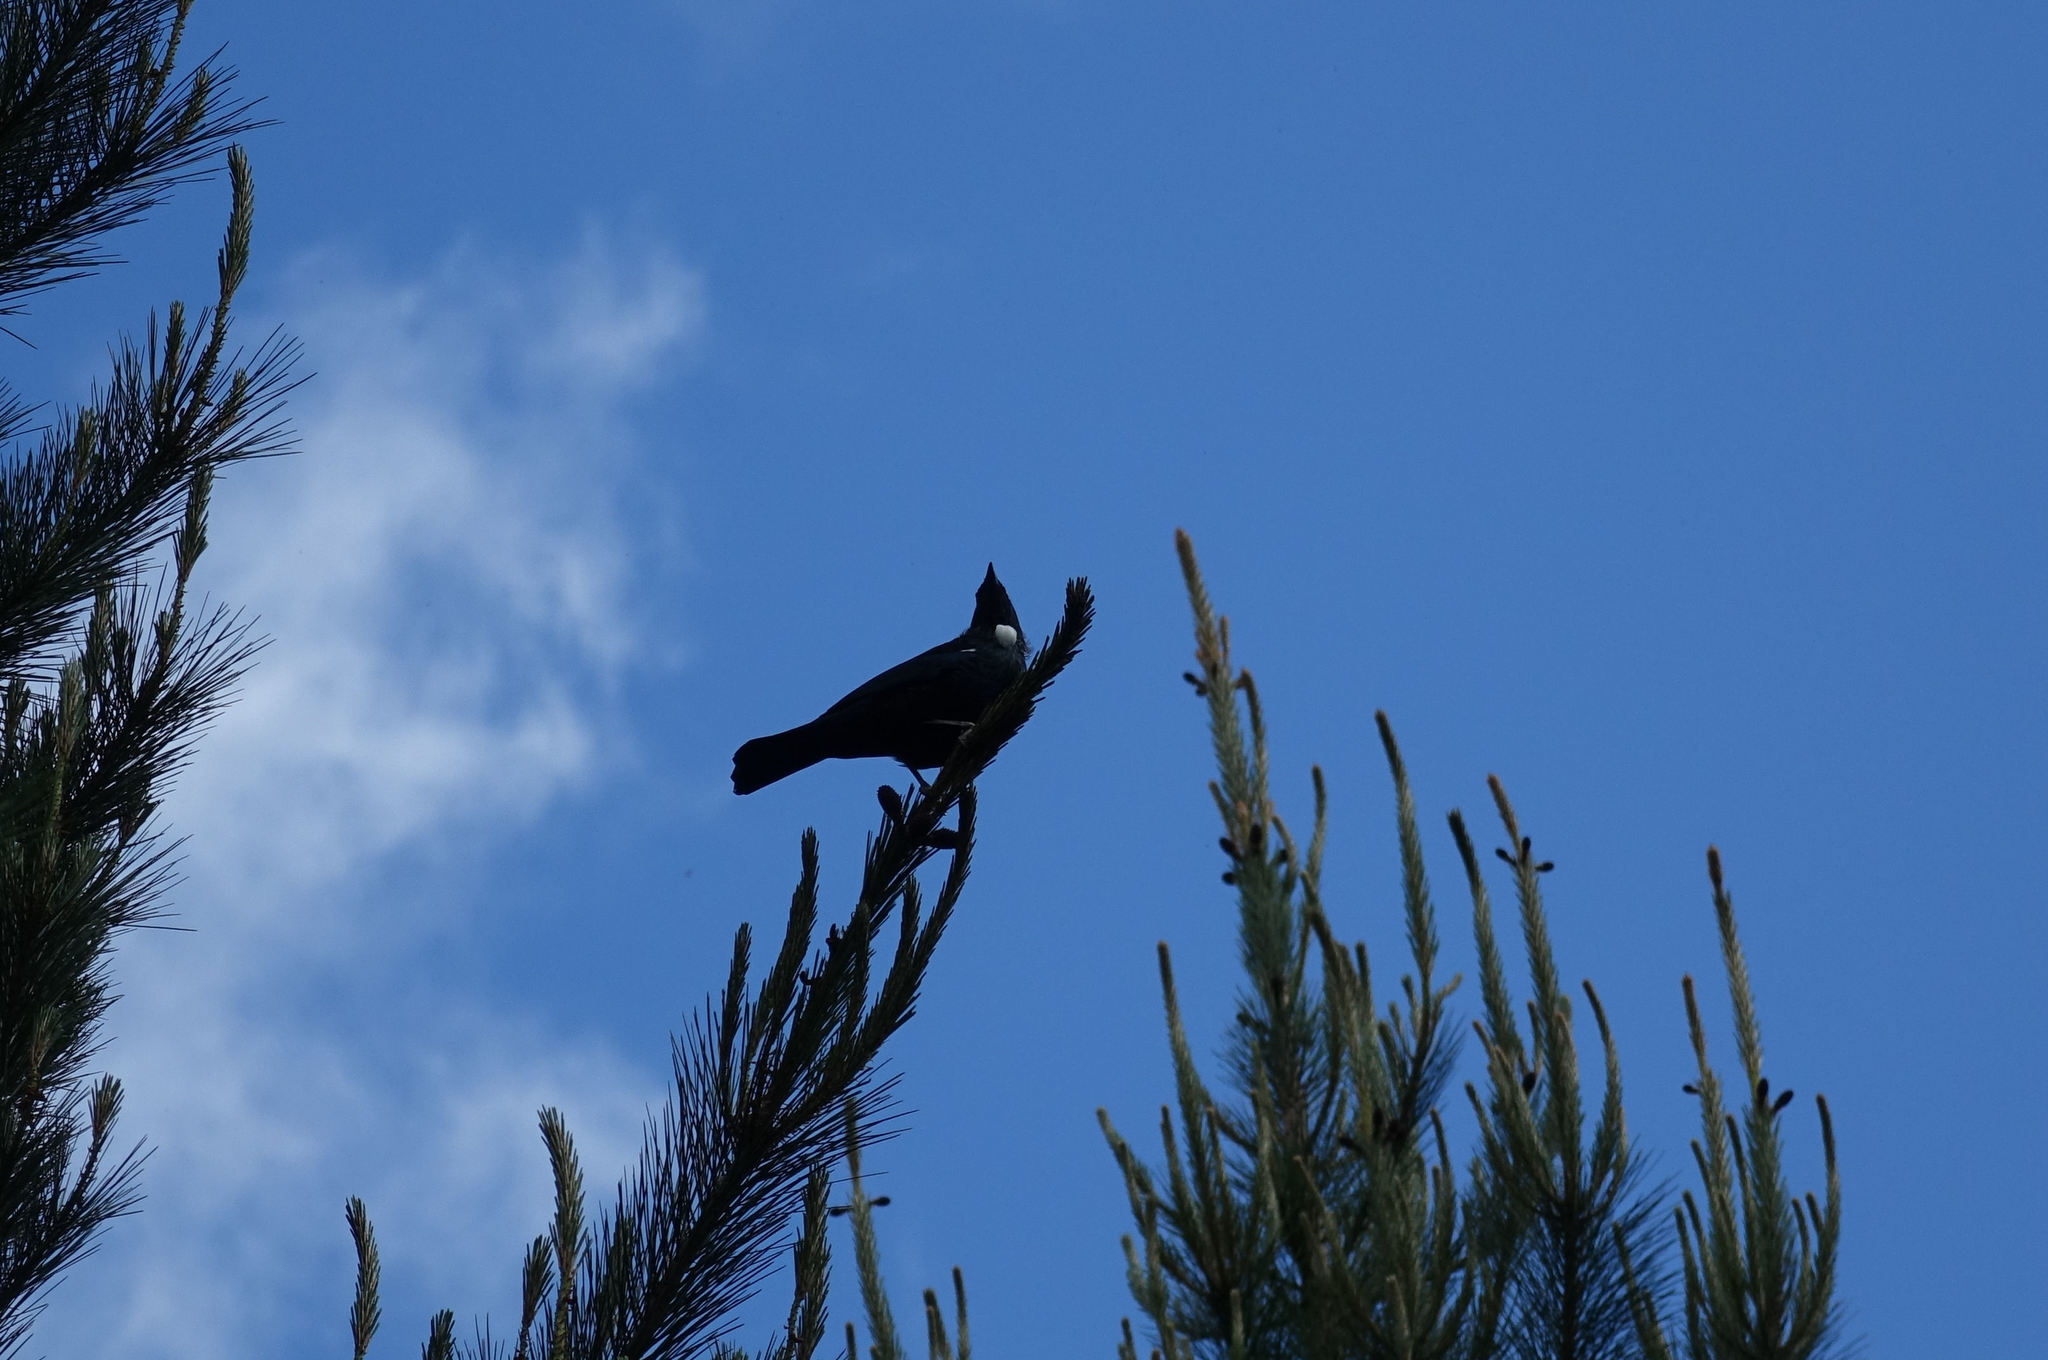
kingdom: Animalia
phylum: Chordata
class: Aves
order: Passeriformes
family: Meliphagidae
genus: Prosthemadera
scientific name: Prosthemadera novaeseelandiae
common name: Tui
